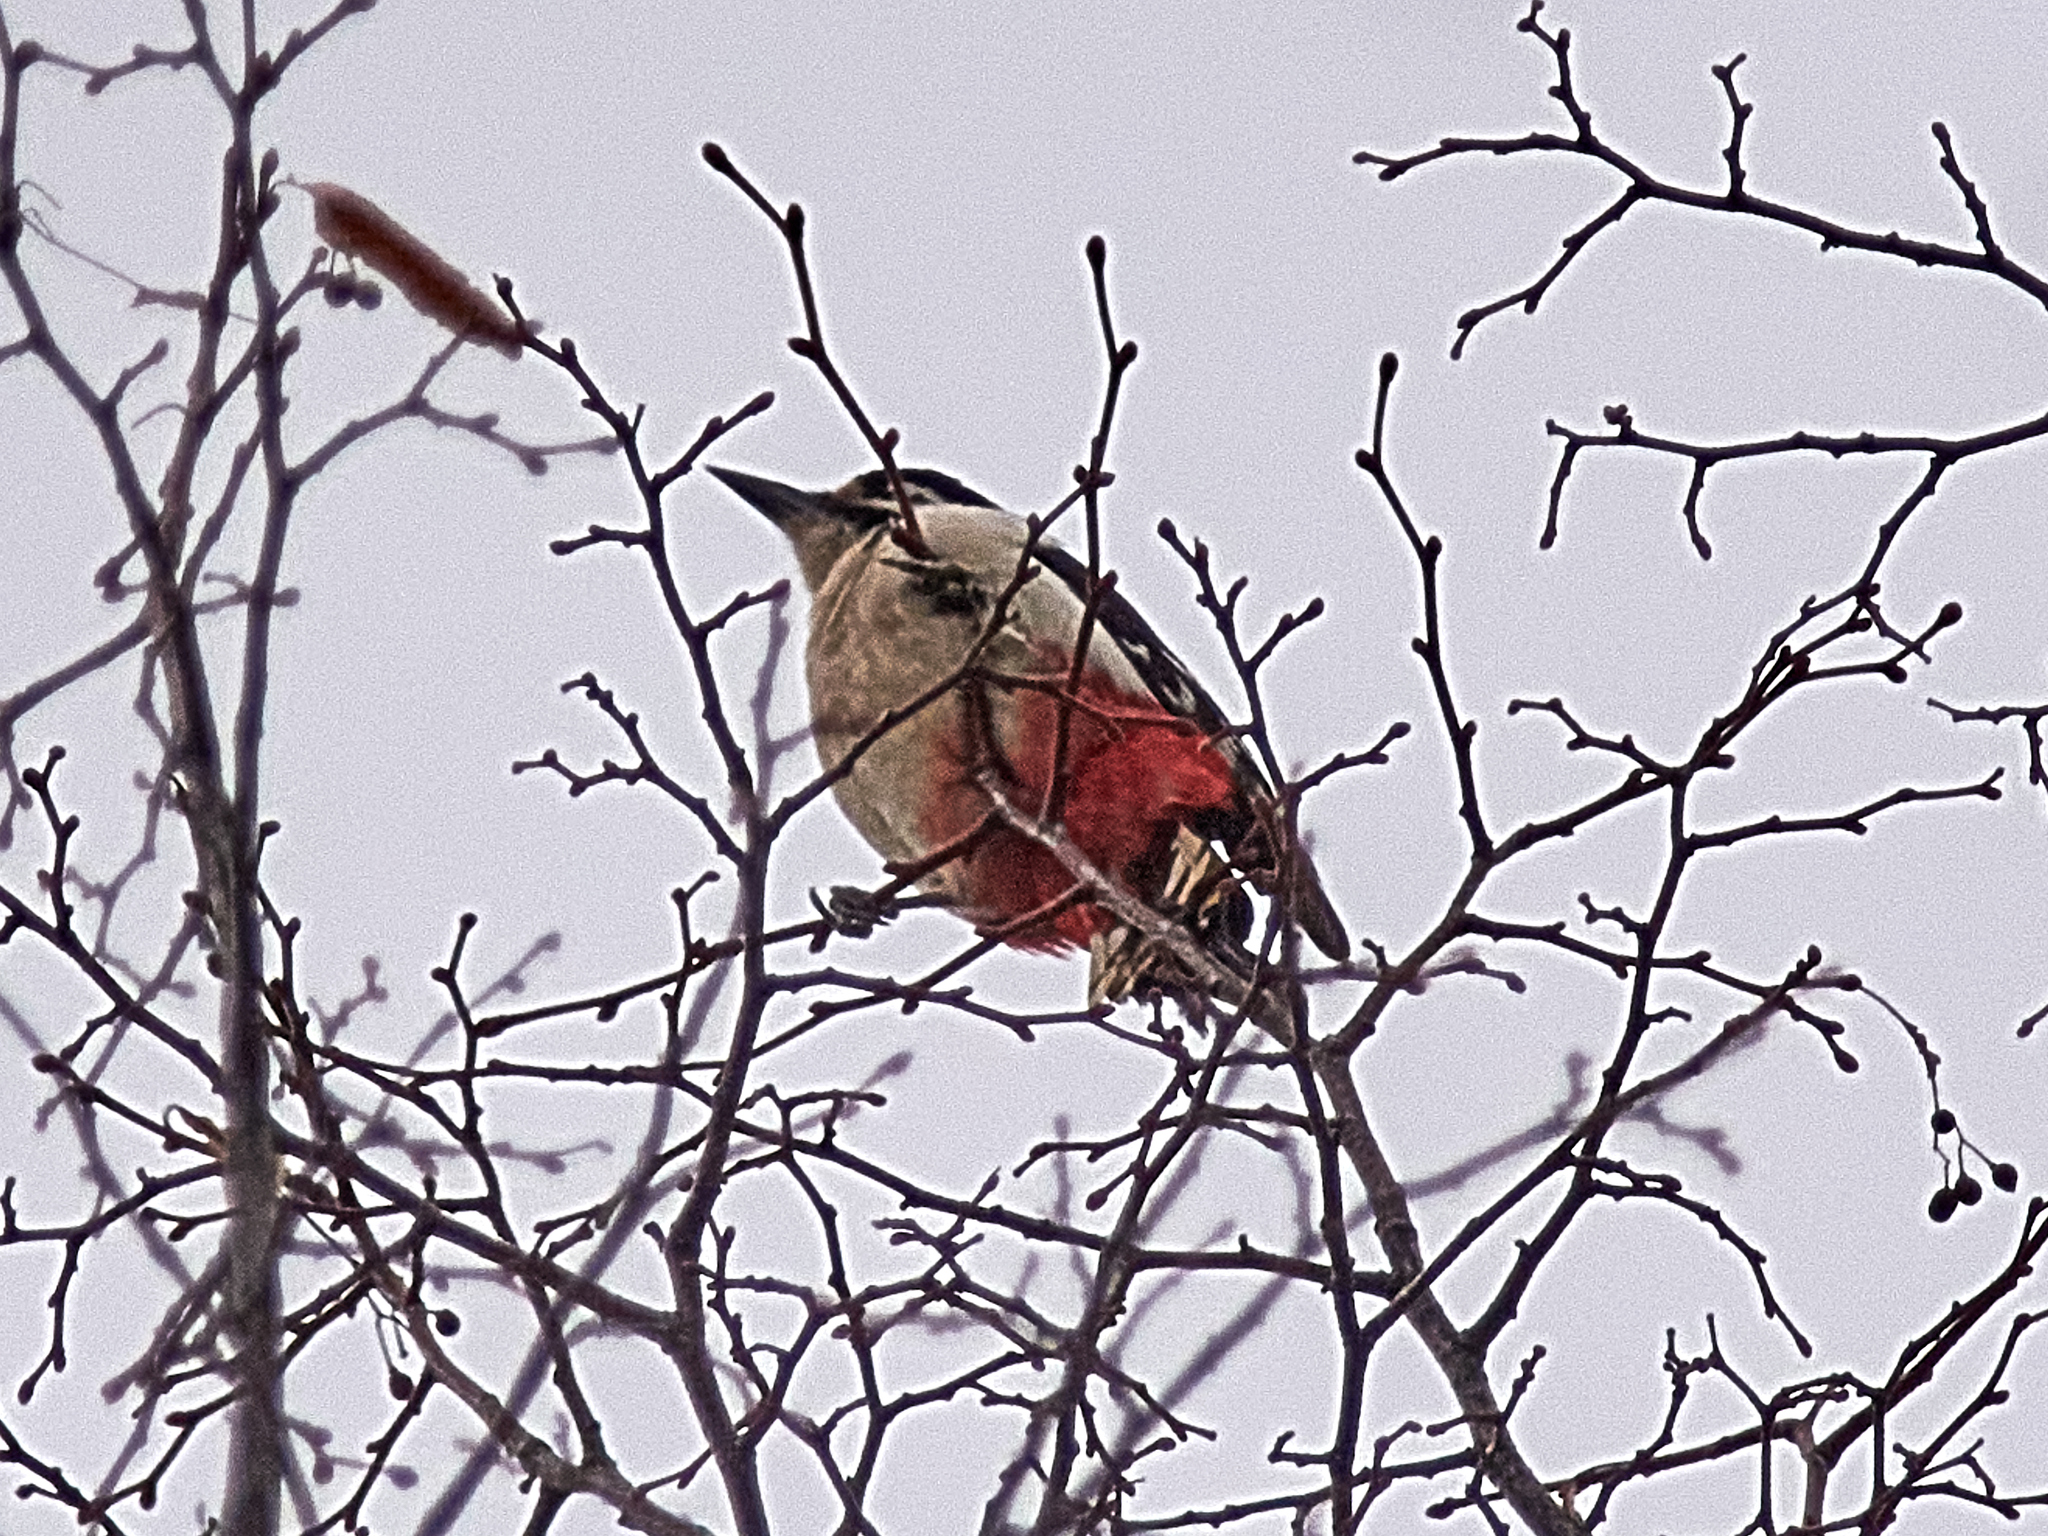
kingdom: Animalia
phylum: Chordata
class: Aves
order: Piciformes
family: Picidae
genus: Dendrocopos
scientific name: Dendrocopos major
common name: Great spotted woodpecker
